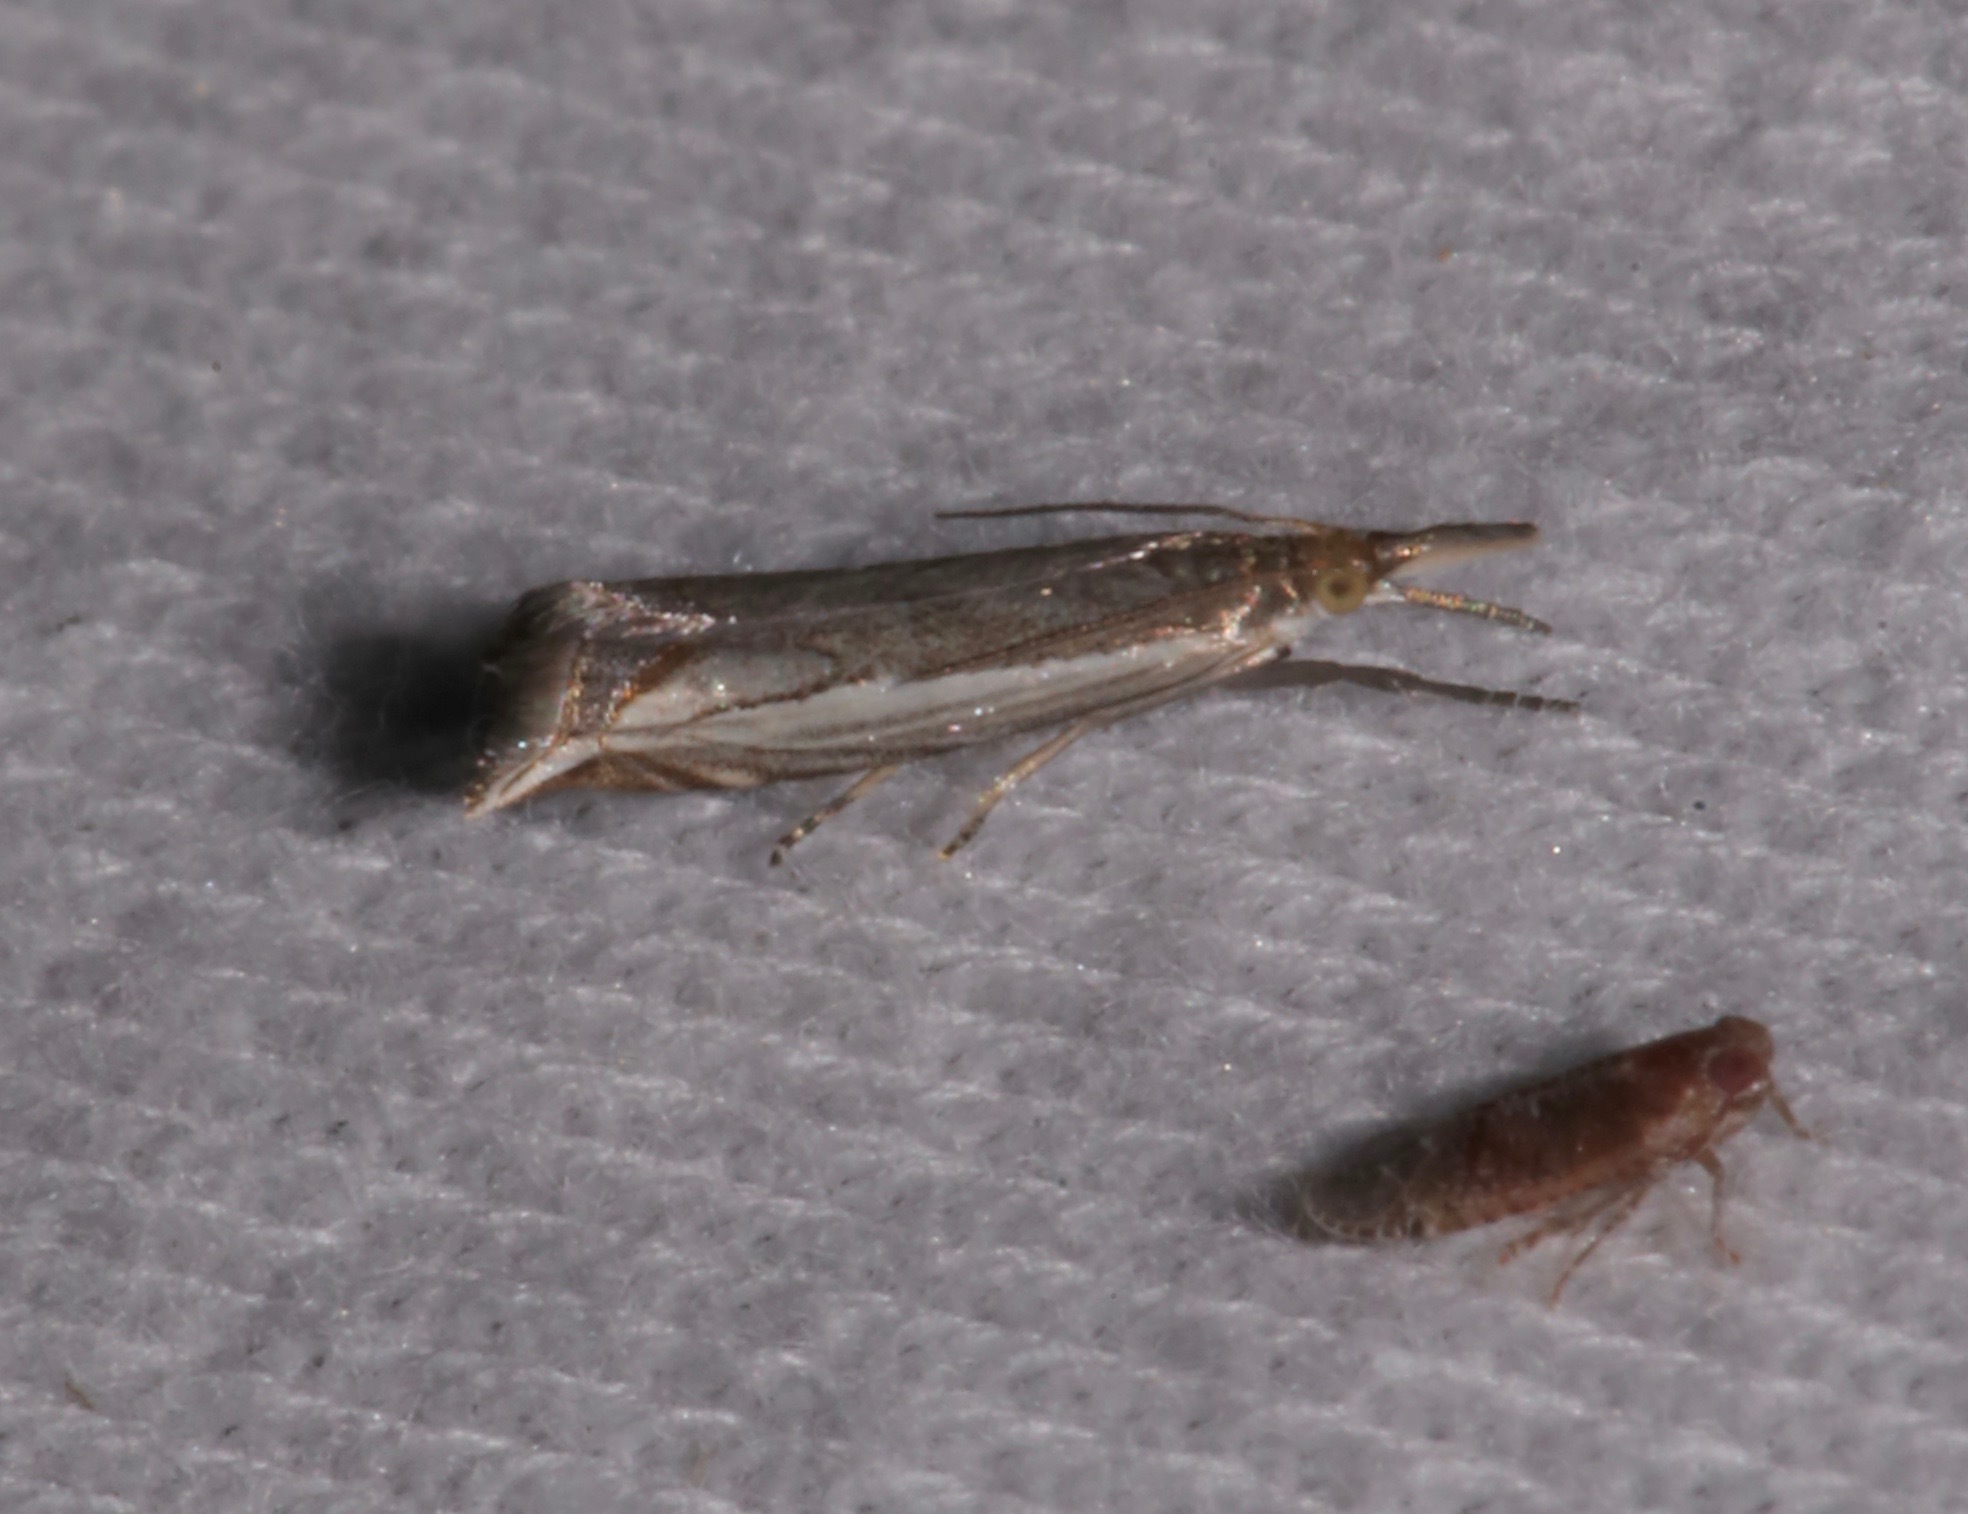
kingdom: Animalia
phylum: Arthropoda
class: Insecta
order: Lepidoptera
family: Crambidae
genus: Raphiptera
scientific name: Raphiptera argillaceellus
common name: Diminutive grass-veneer
